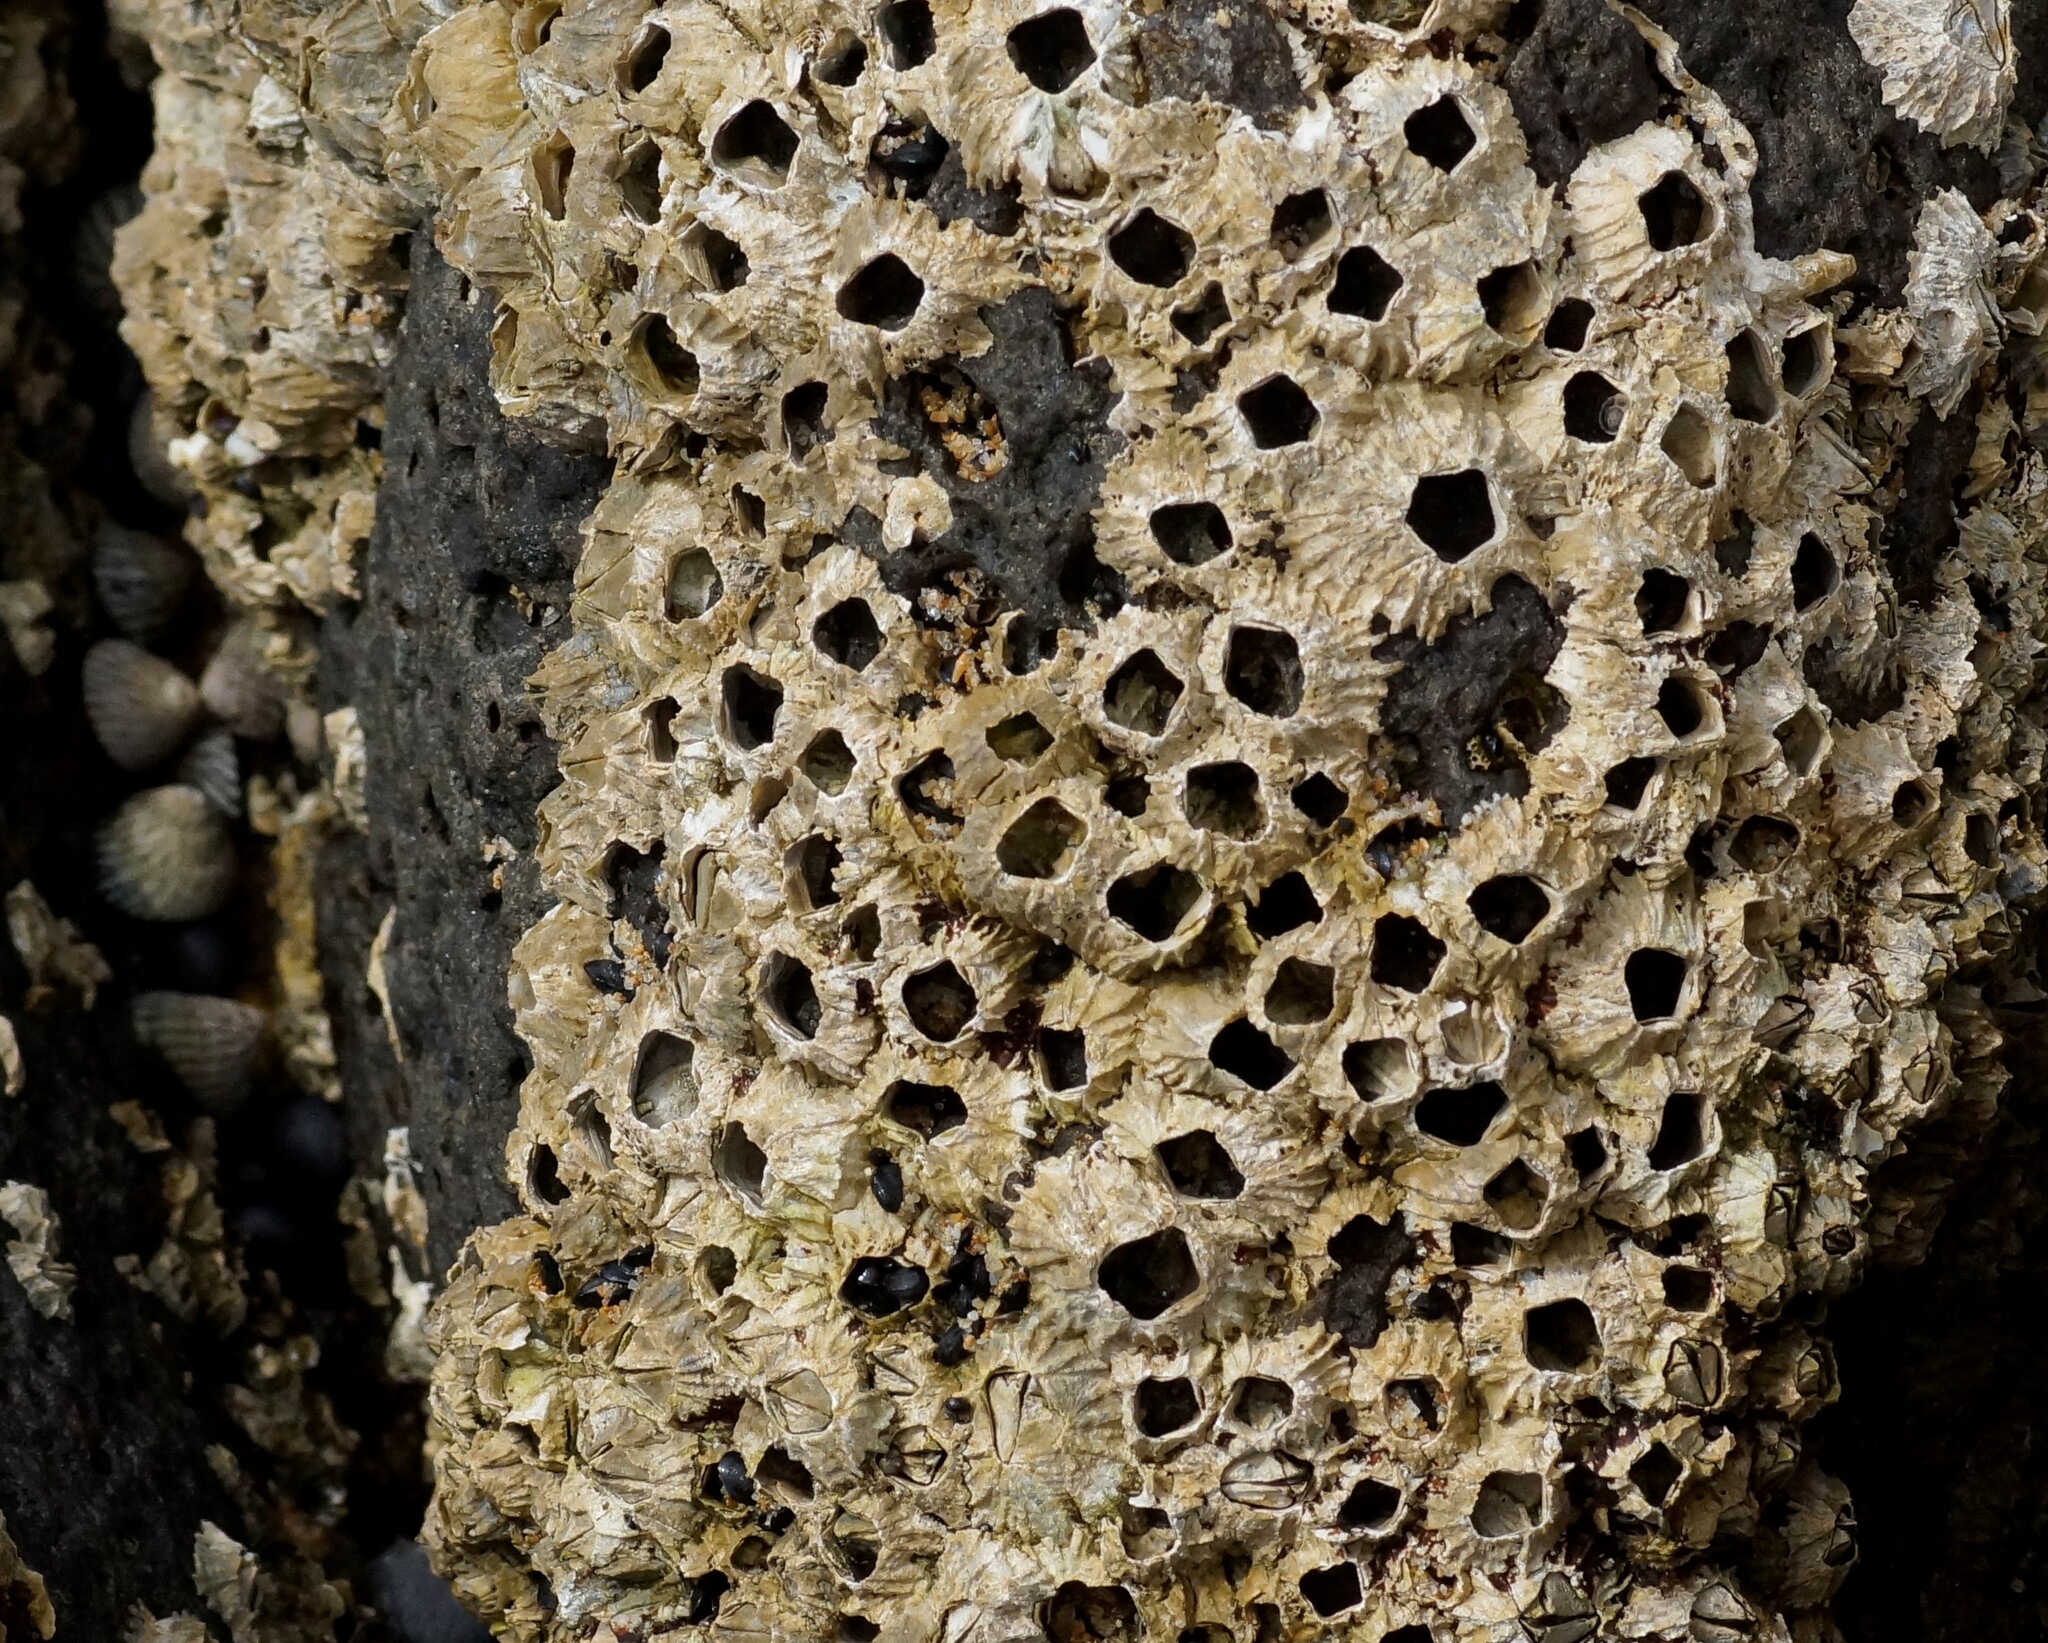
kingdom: Animalia
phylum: Arthropoda
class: Maxillopoda
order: Sessilia
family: Tetraclitidae
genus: Tetraclitella
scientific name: Tetraclitella purpurascens
